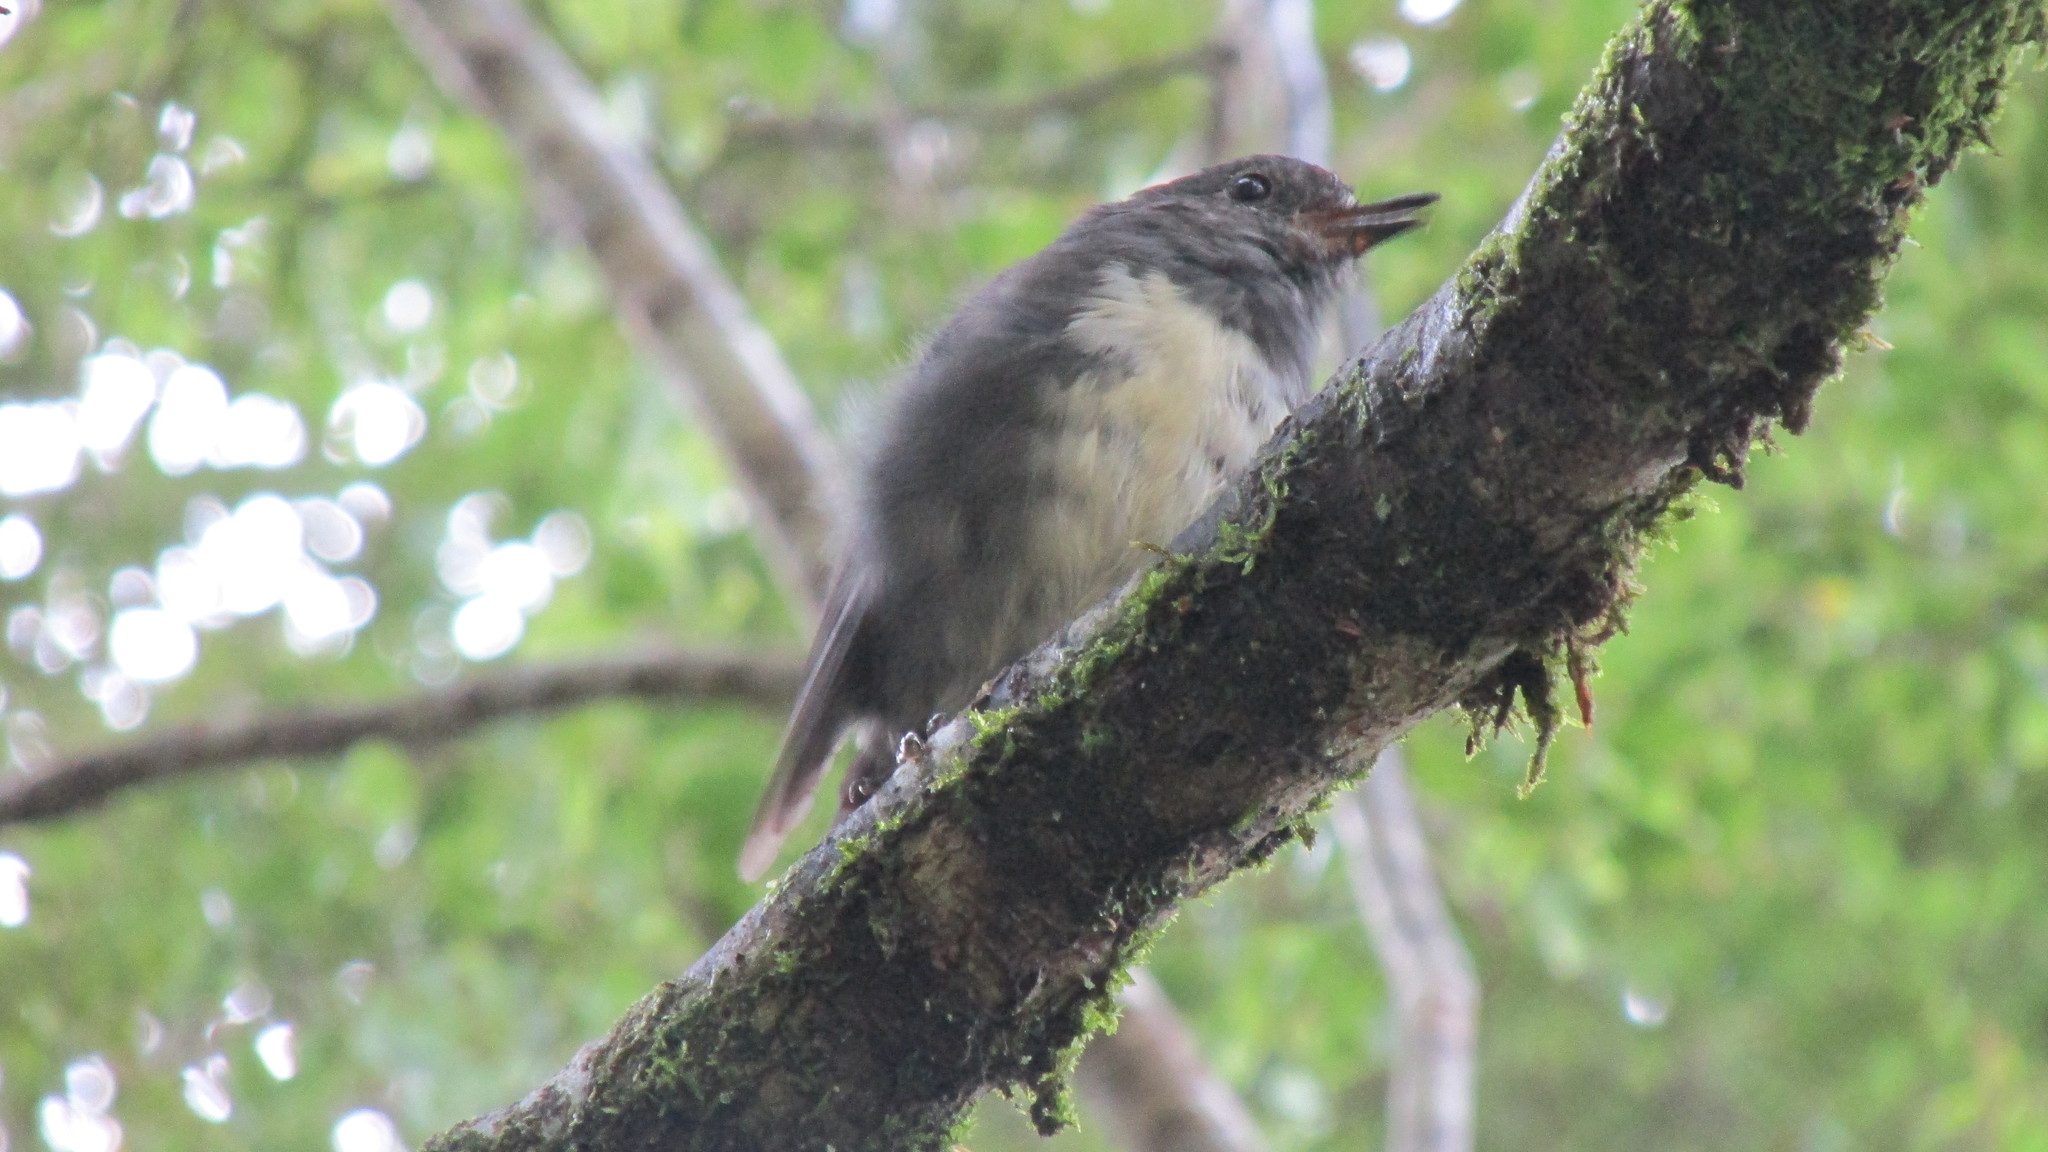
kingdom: Animalia
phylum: Chordata
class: Aves
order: Passeriformes
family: Petroicidae
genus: Petroica
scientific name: Petroica australis
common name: New zealand robin
